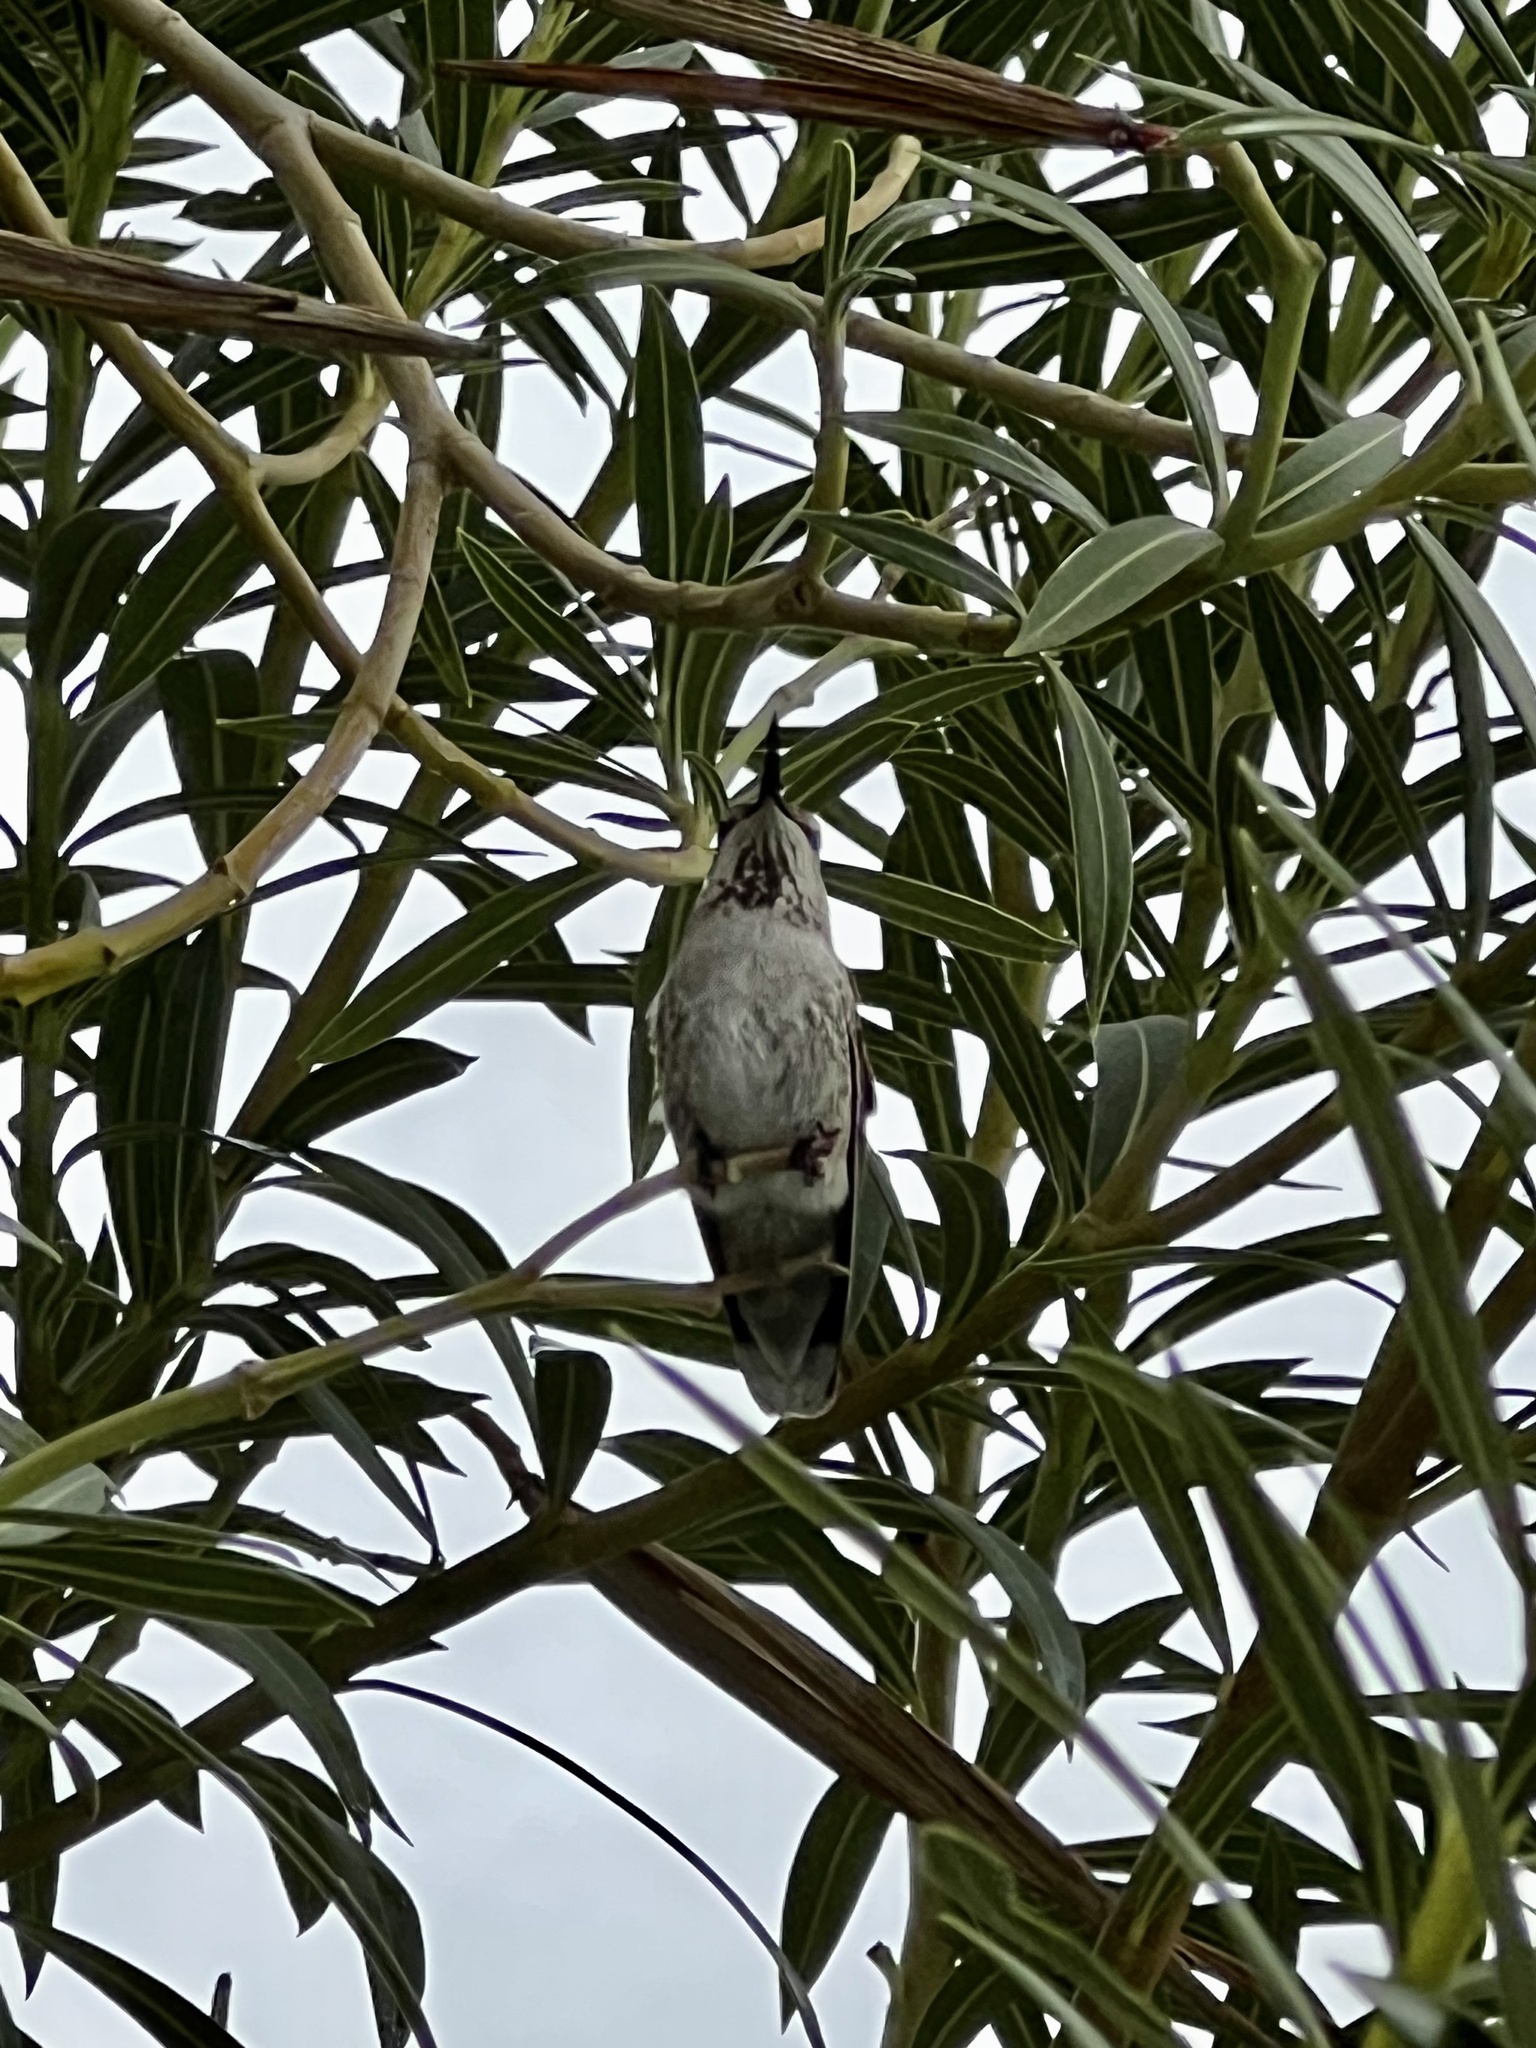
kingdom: Animalia
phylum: Chordata
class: Aves
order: Apodiformes
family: Trochilidae
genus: Calypte
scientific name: Calypte anna
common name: Anna's hummingbird
